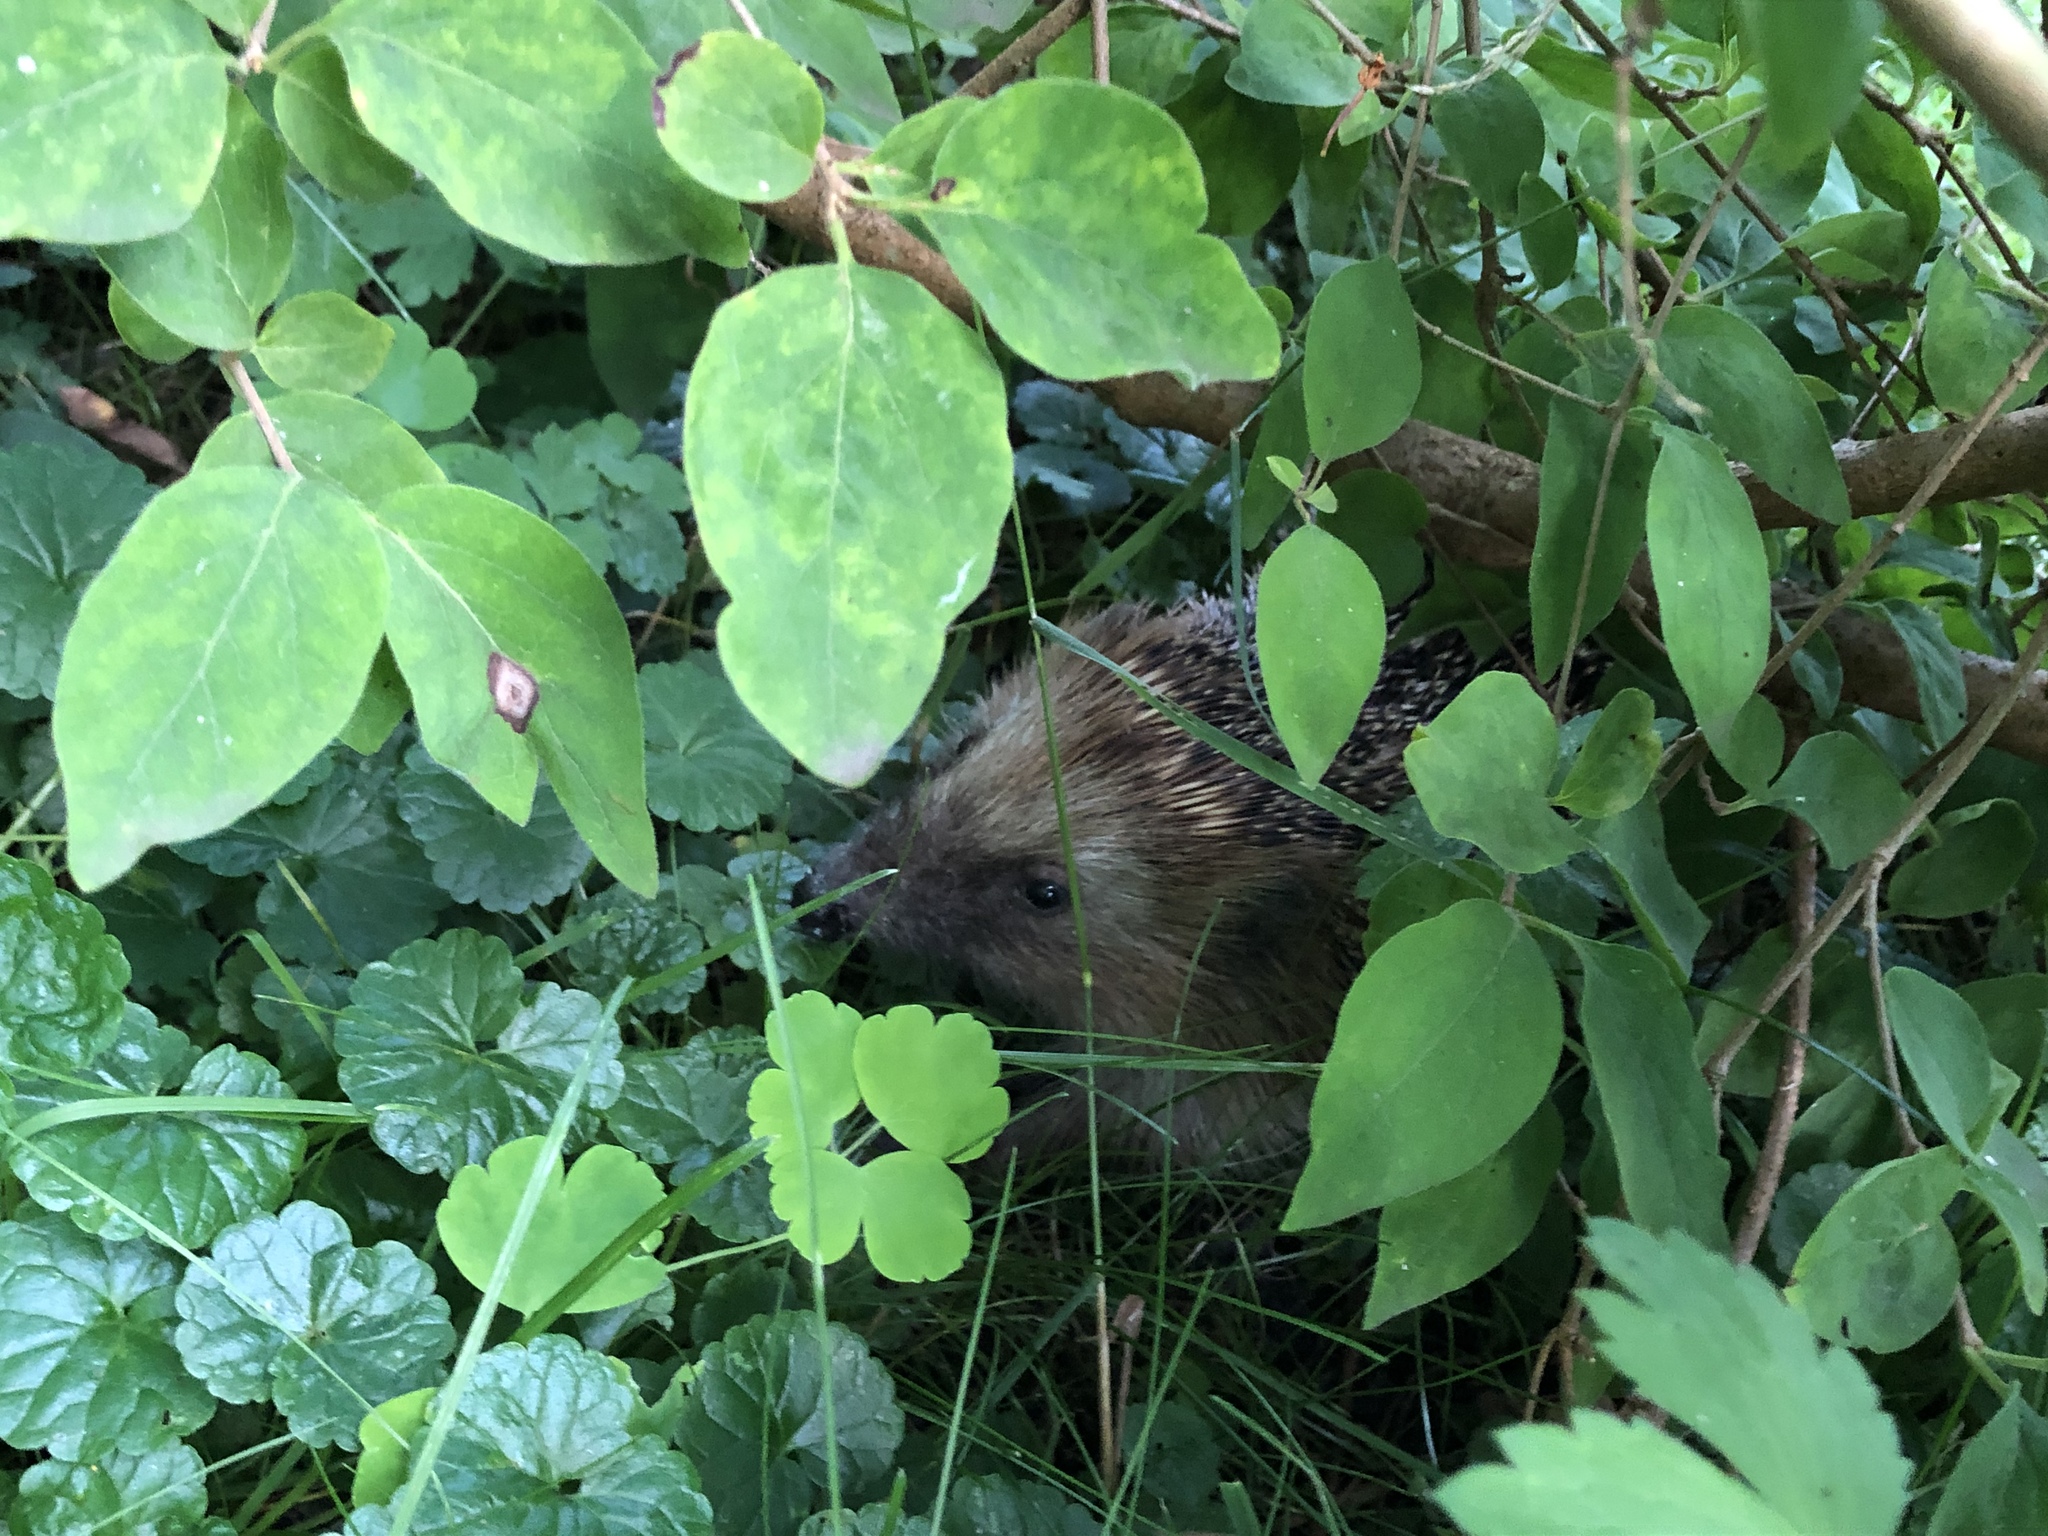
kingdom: Animalia
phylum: Chordata
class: Mammalia
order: Erinaceomorpha
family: Erinaceidae
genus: Erinaceus
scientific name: Erinaceus europaeus
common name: West european hedgehog
